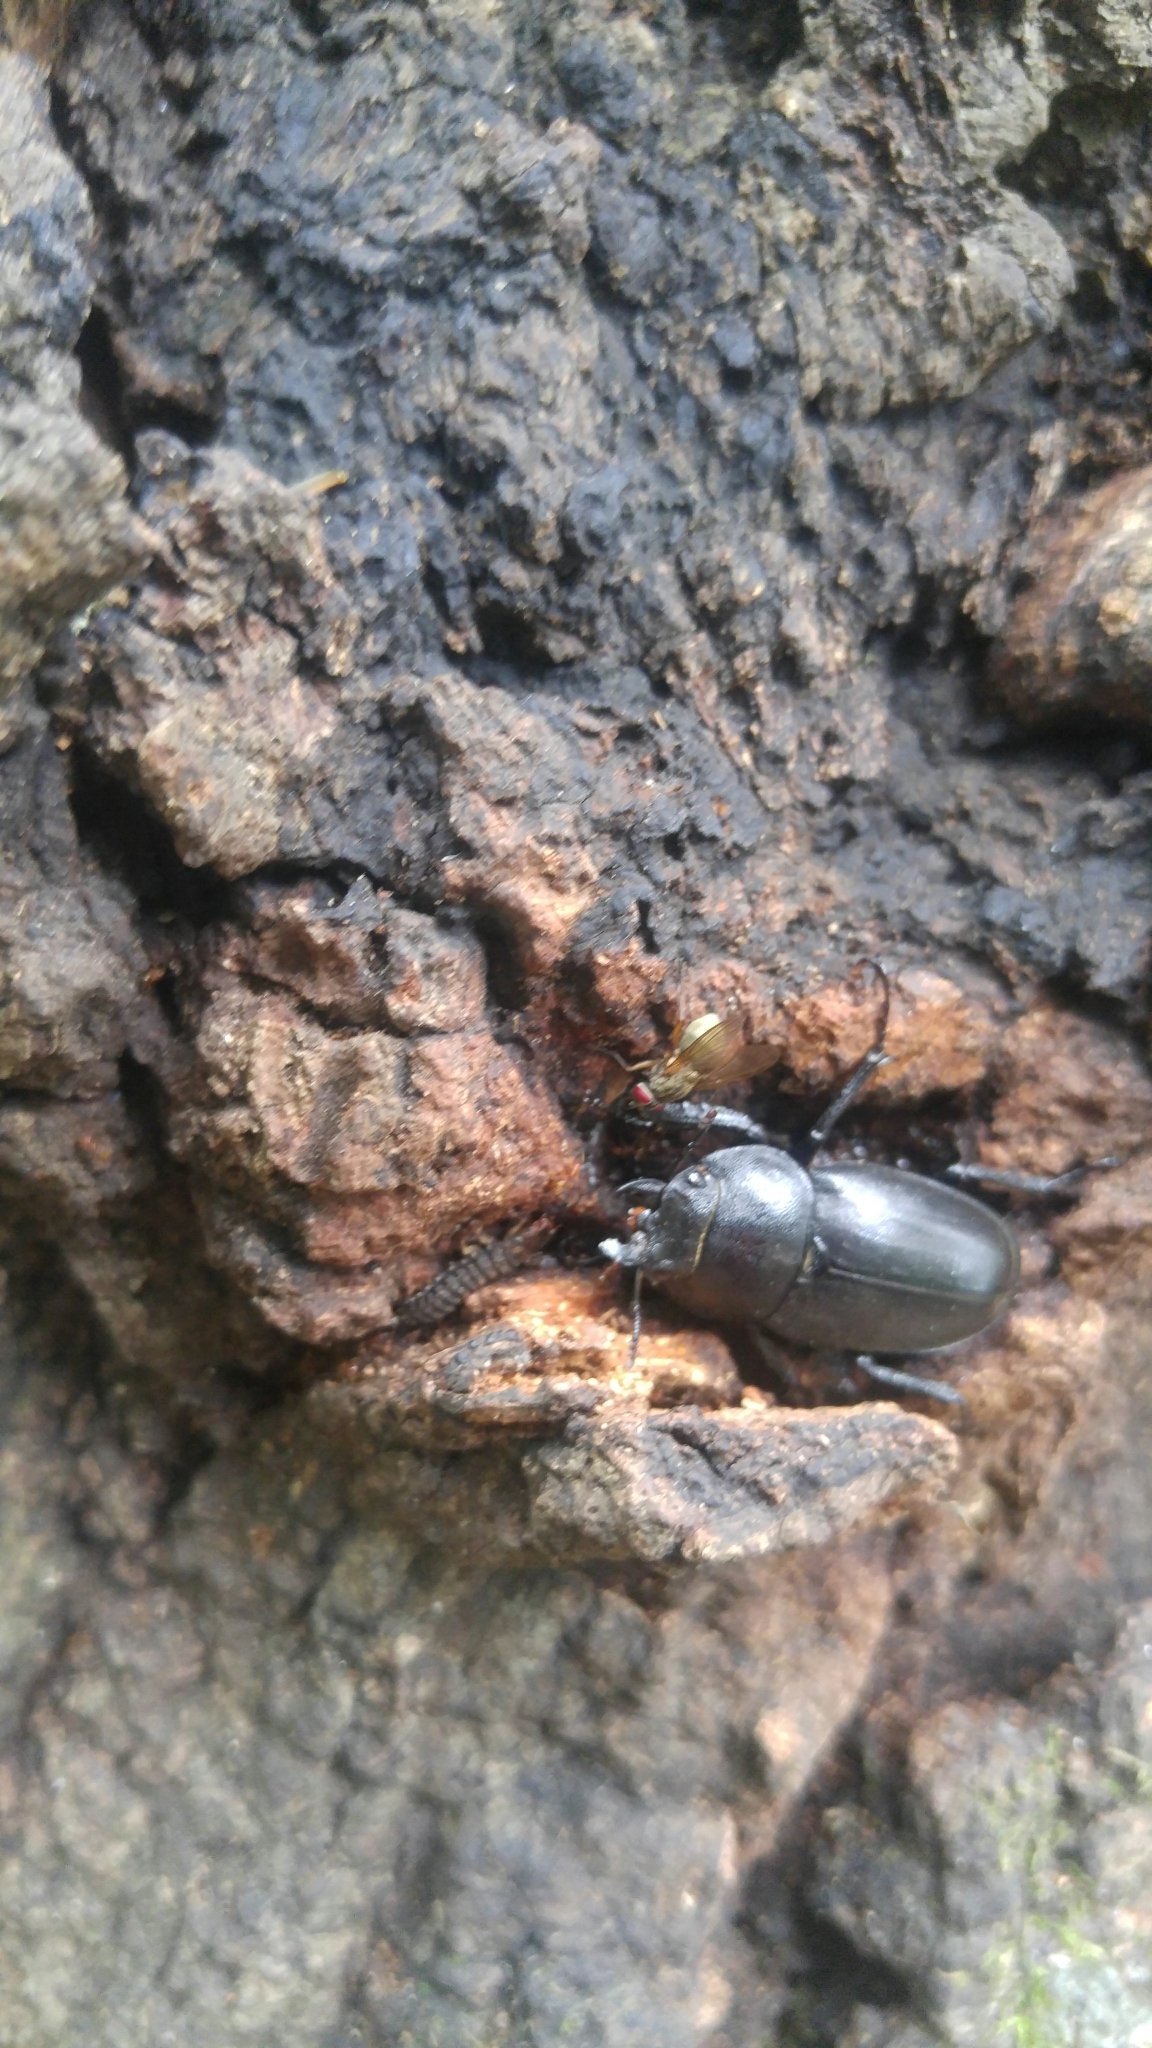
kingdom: Animalia
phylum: Arthropoda
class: Insecta
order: Coleoptera
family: Lucanidae
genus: Prosopocoilus
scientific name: Prosopocoilus inclinatus
